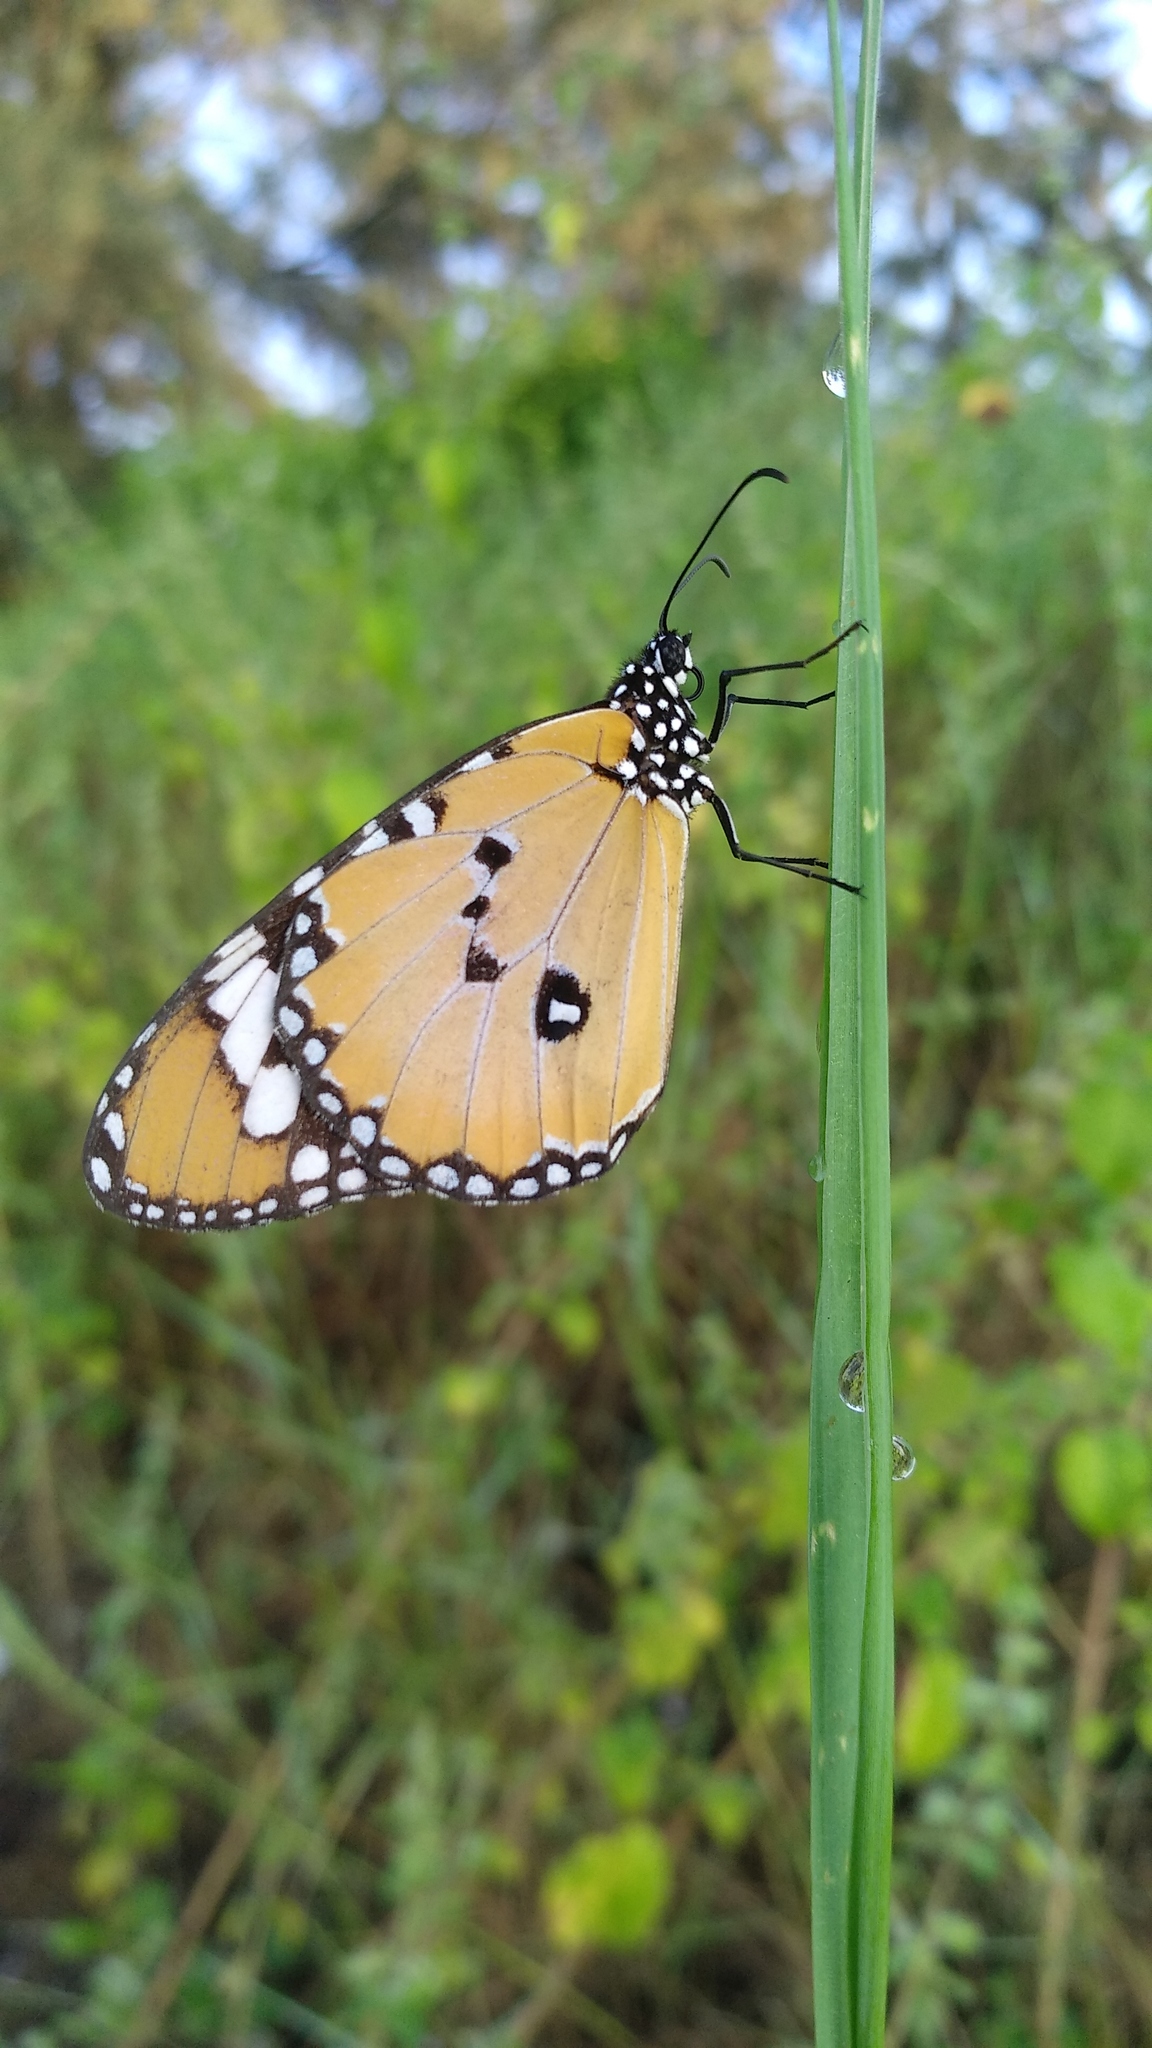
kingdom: Animalia
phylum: Arthropoda
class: Insecta
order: Lepidoptera
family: Nymphalidae
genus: Danaus
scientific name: Danaus chrysippus
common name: Plain tiger
